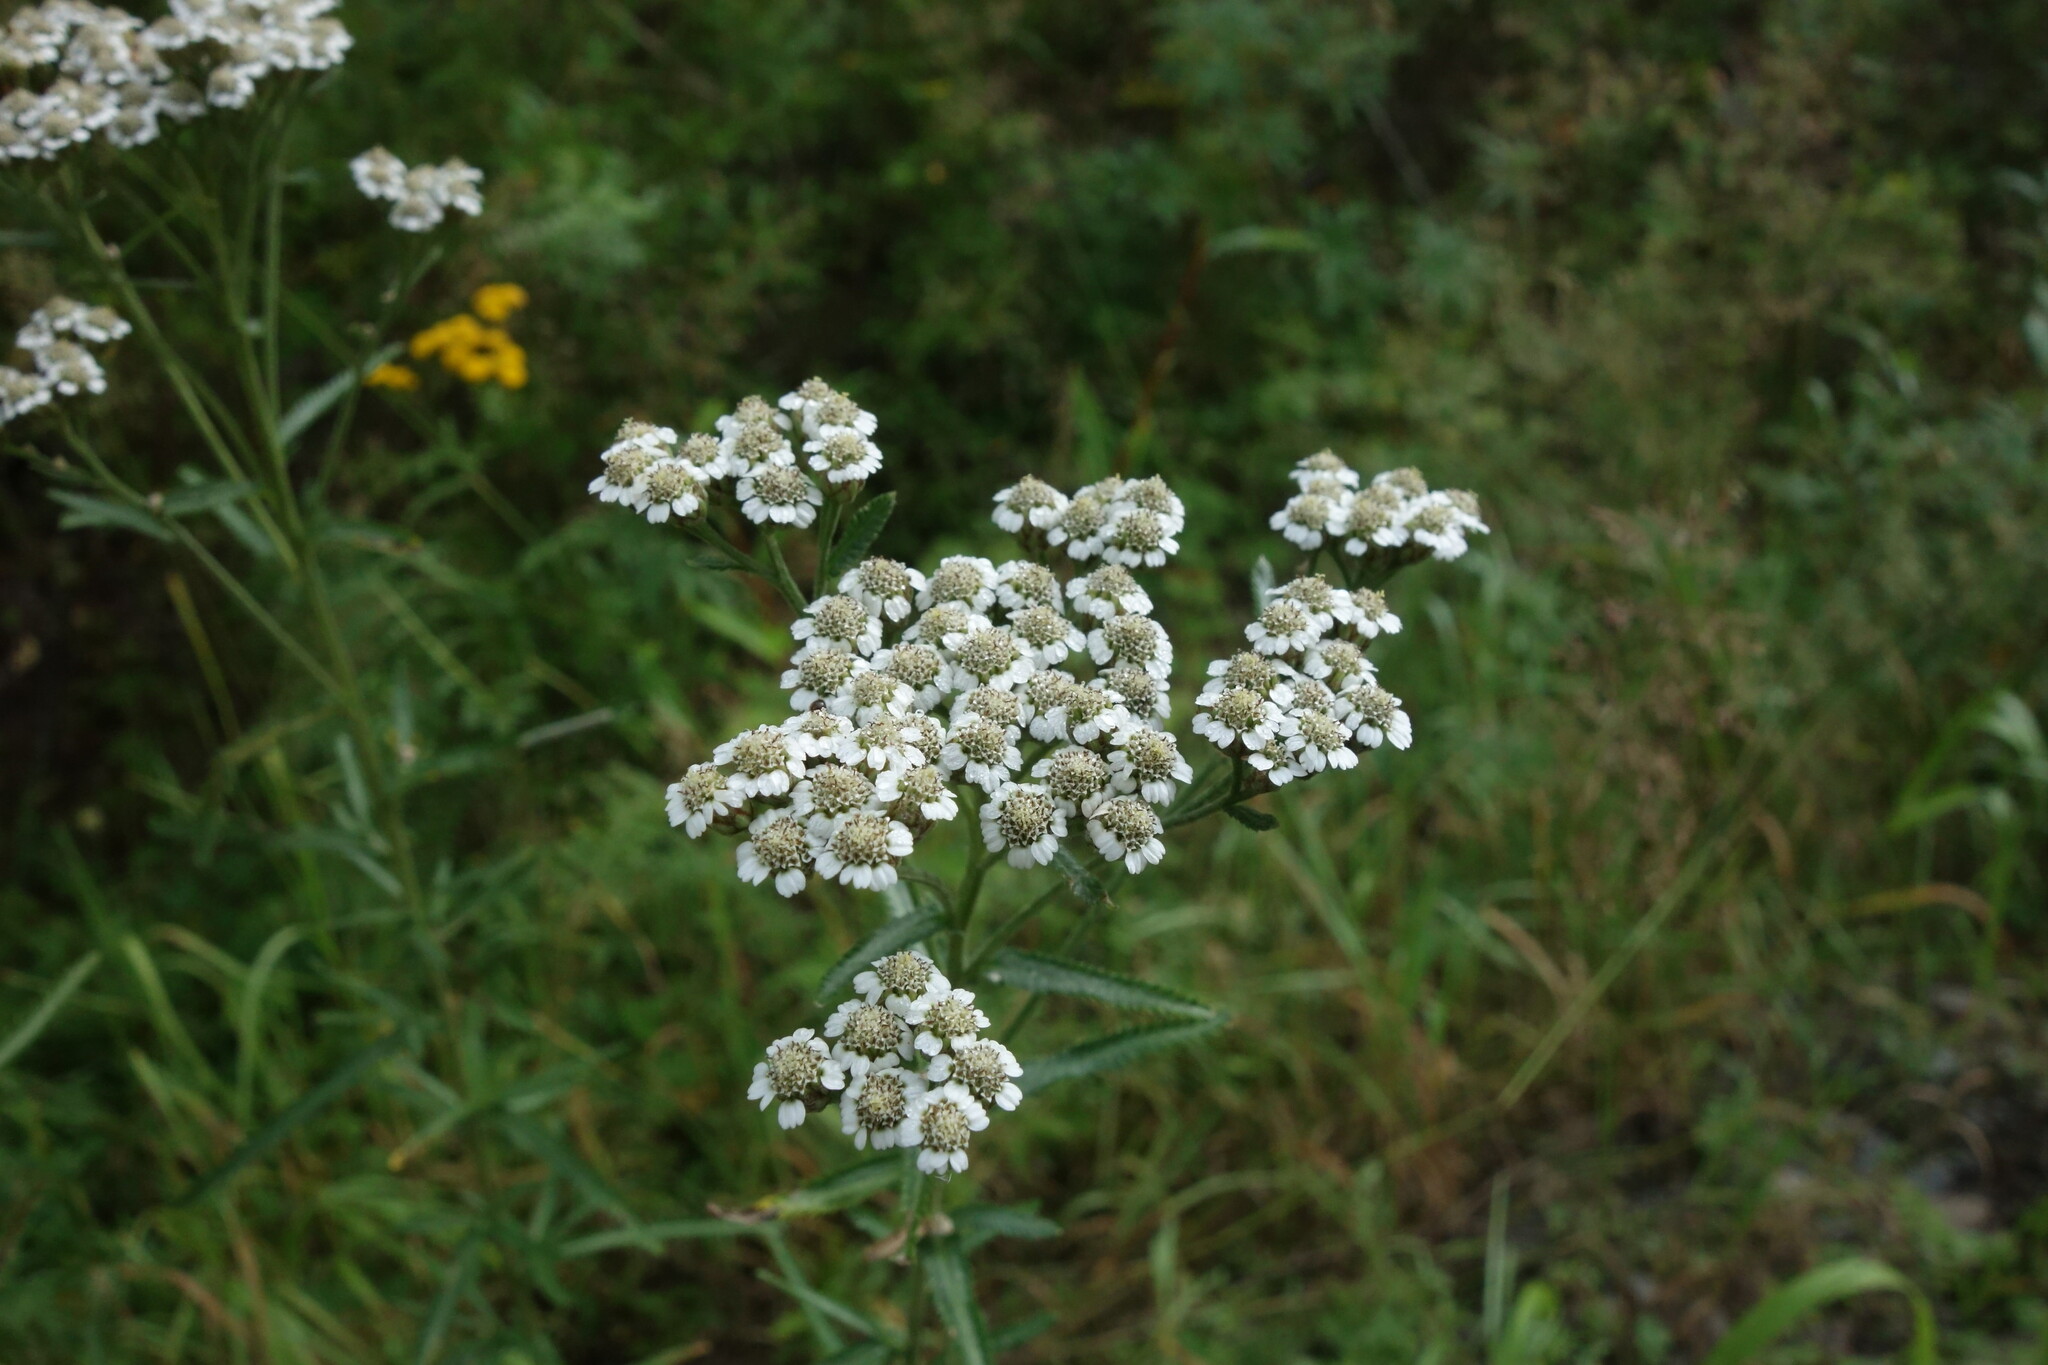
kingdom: Plantae
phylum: Tracheophyta
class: Magnoliopsida
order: Asterales
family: Asteraceae
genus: Achillea
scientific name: Achillea alpina
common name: Siberian yarrow
